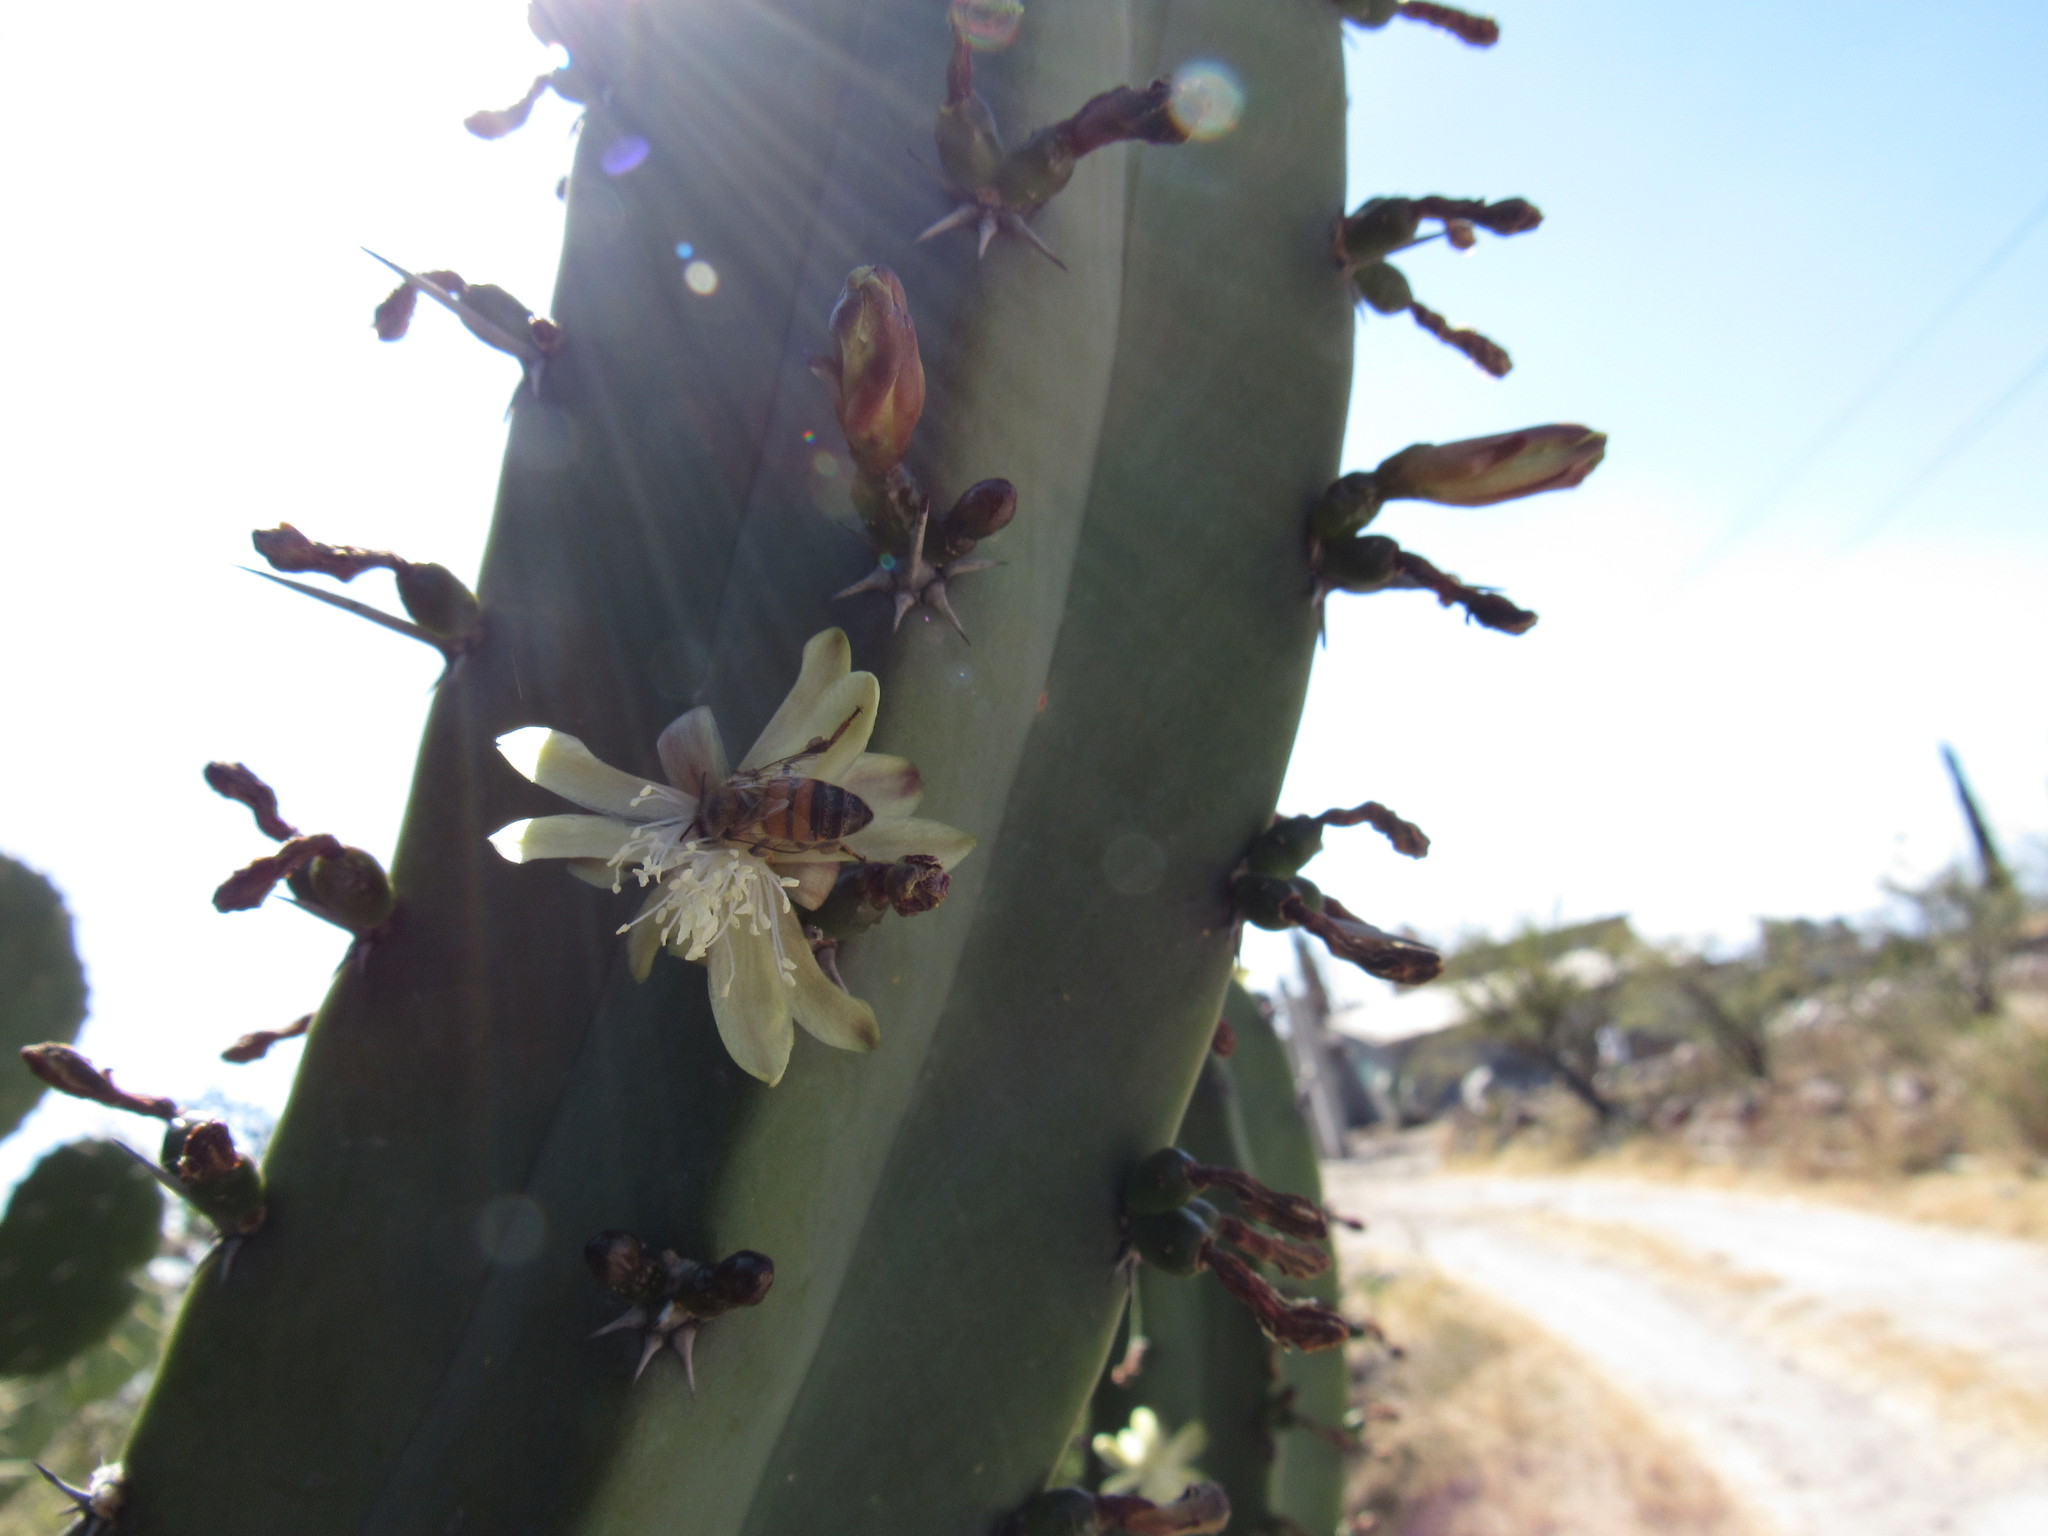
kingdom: Animalia
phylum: Arthropoda
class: Insecta
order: Hymenoptera
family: Apidae
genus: Apis
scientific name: Apis mellifera
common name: Honey bee
